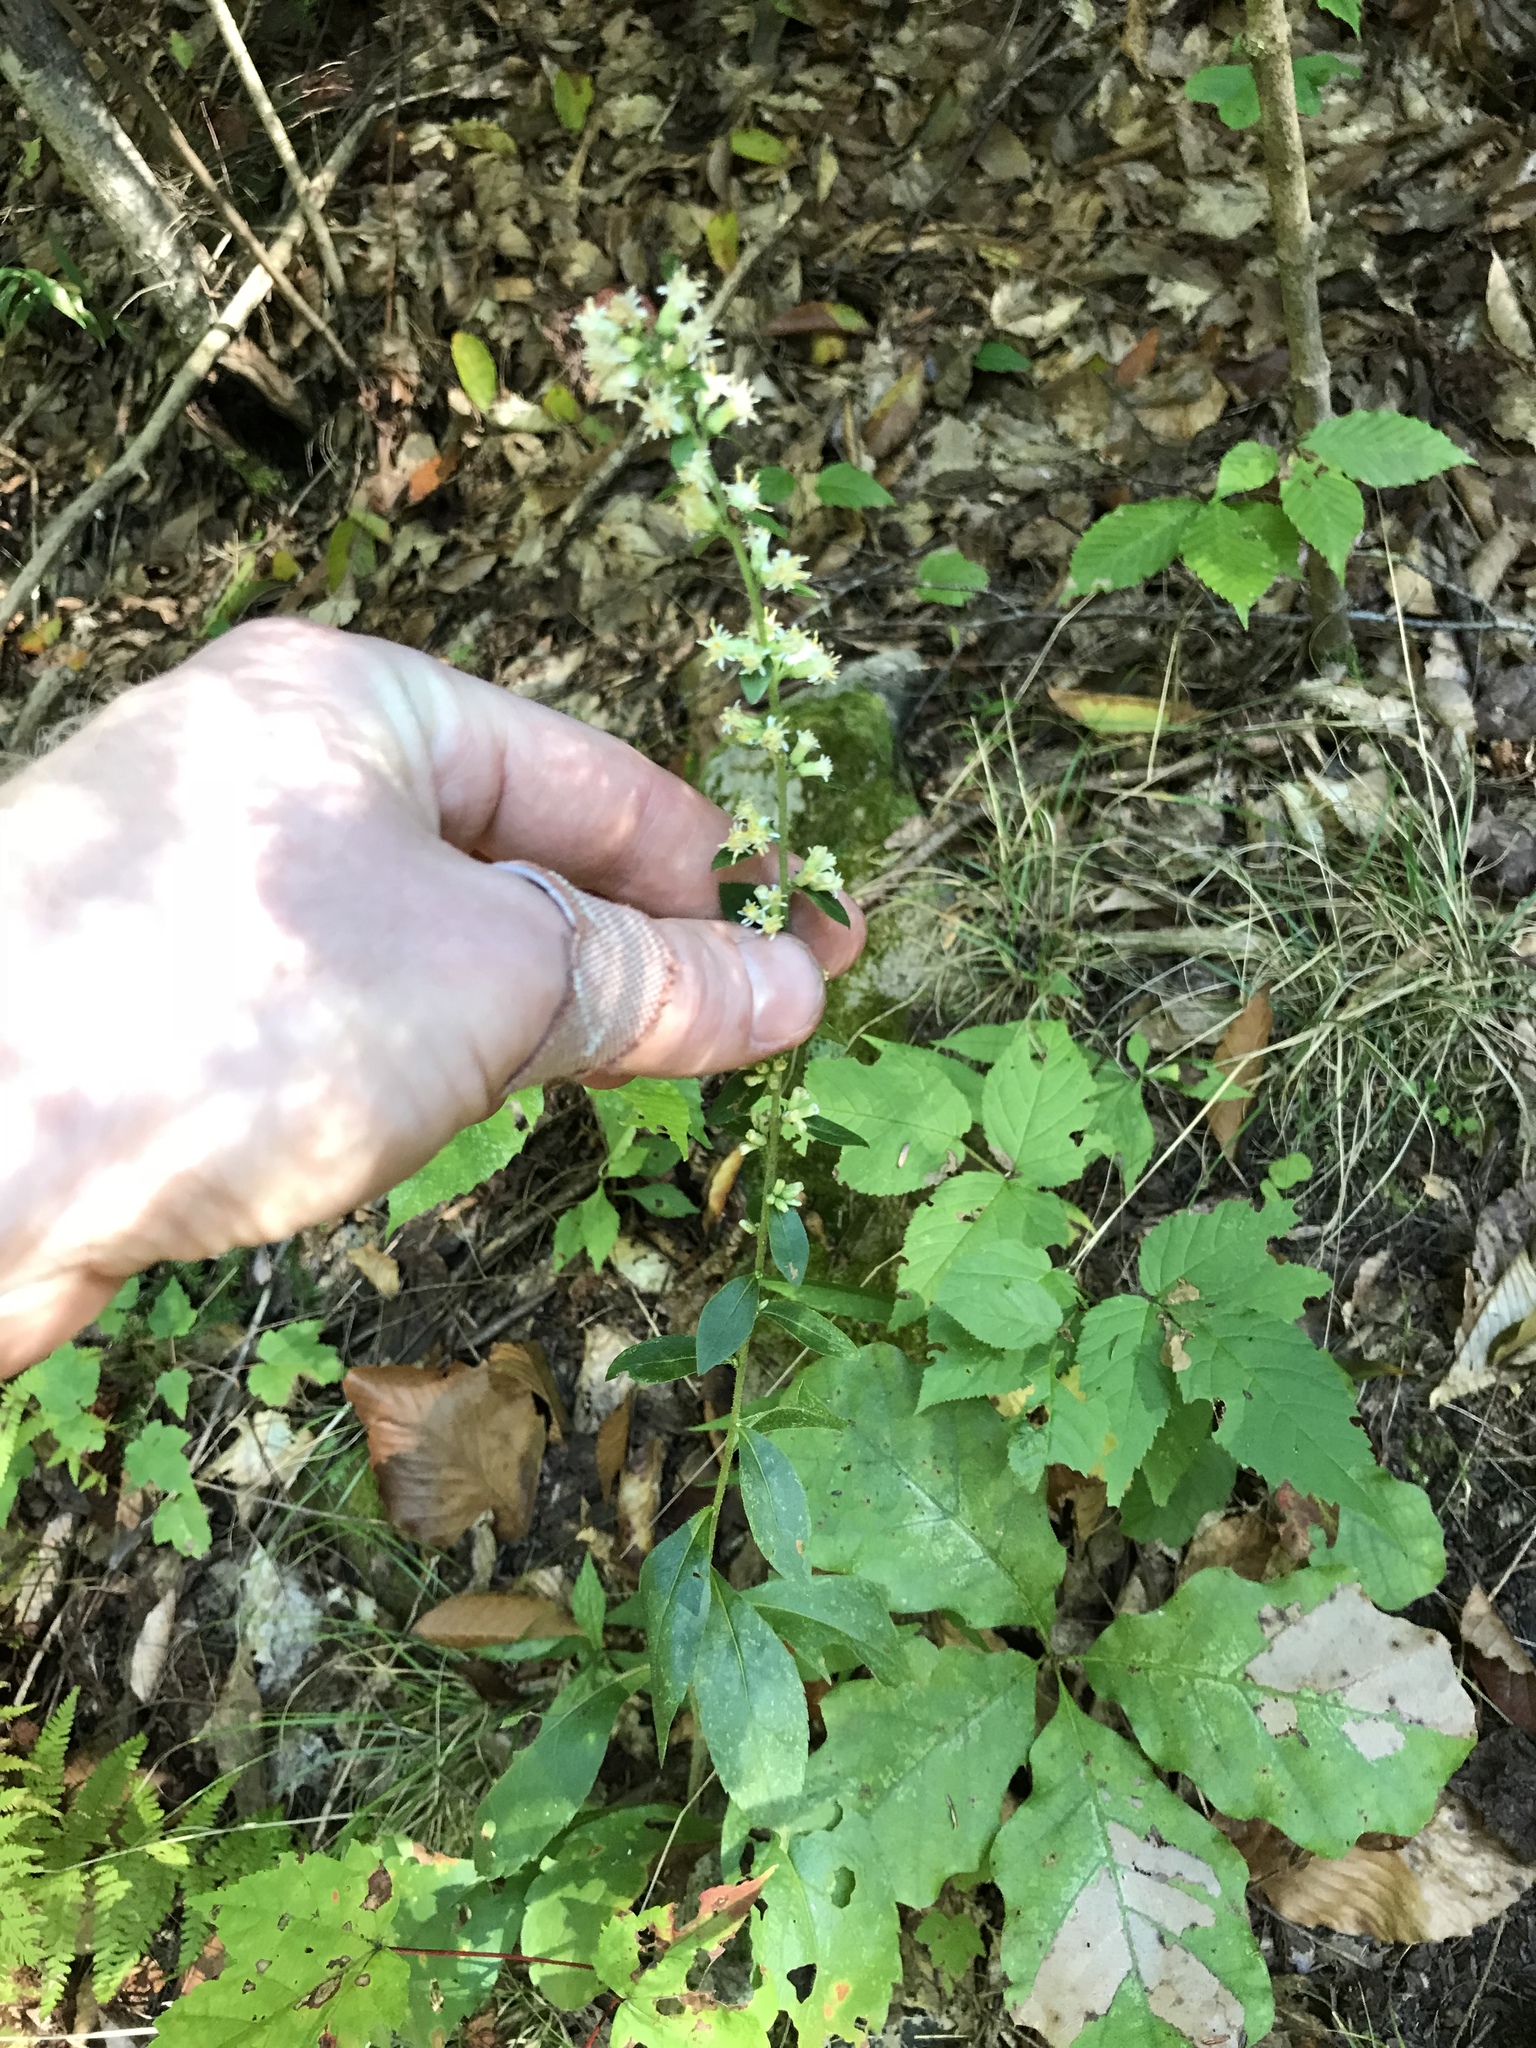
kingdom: Plantae
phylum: Tracheophyta
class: Magnoliopsida
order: Asterales
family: Asteraceae
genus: Solidago
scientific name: Solidago bicolor
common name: Silverrod
